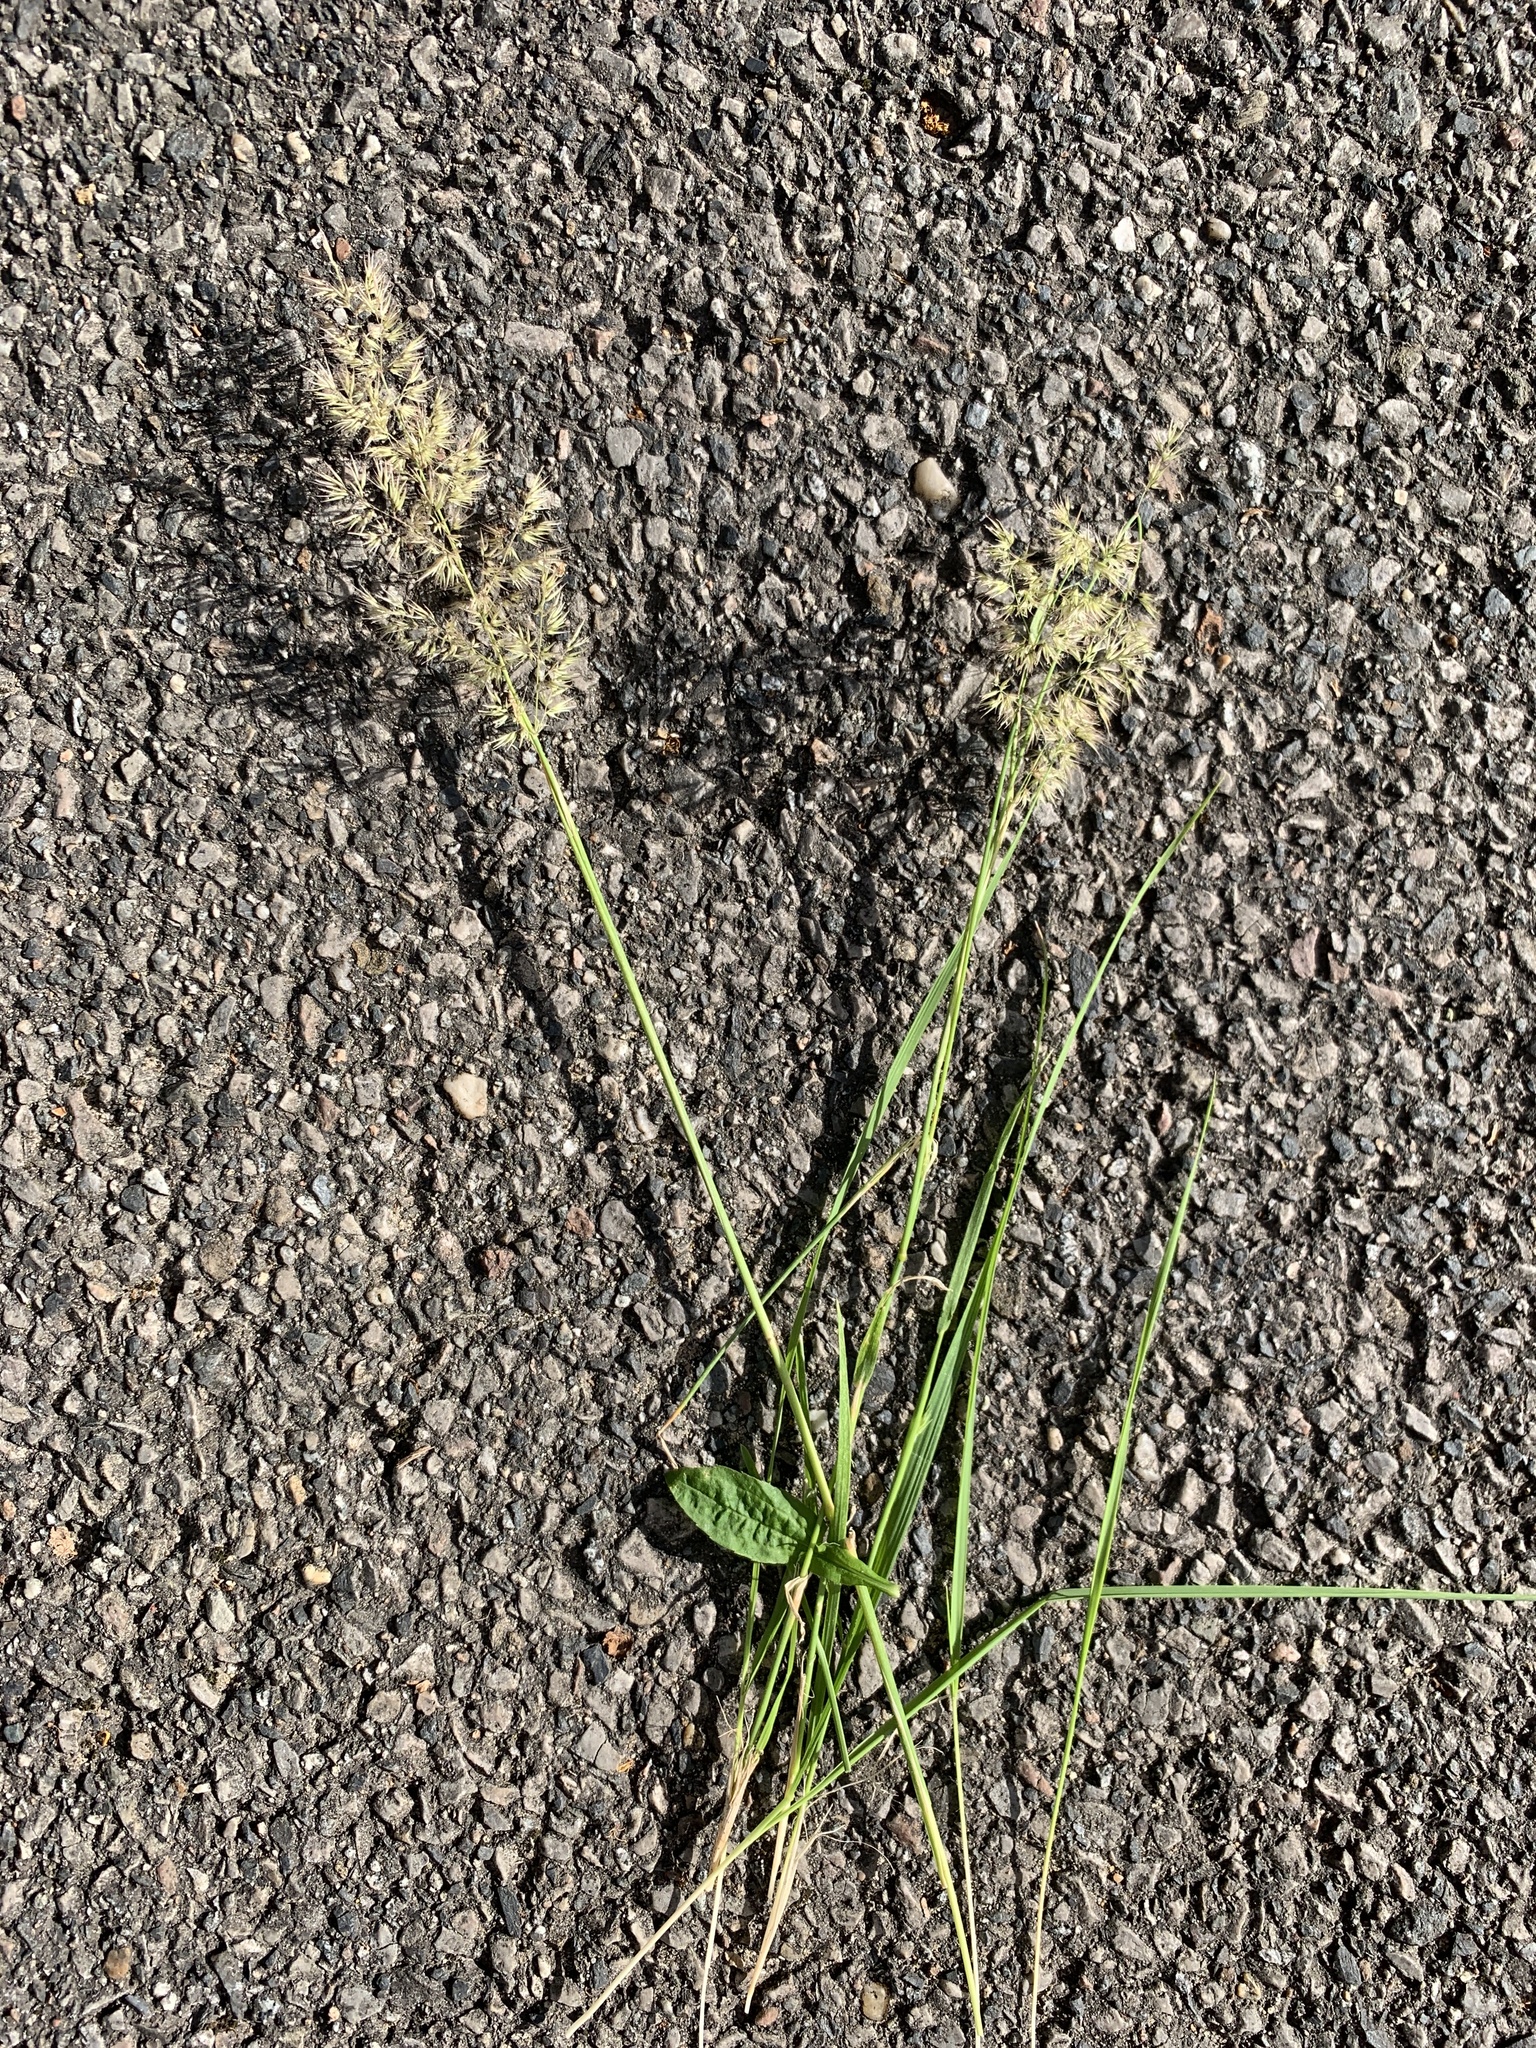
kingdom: Plantae
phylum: Tracheophyta
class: Liliopsida
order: Poales
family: Poaceae
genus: Calamagrostis
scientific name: Calamagrostis epigejos
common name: Wood small-reed
